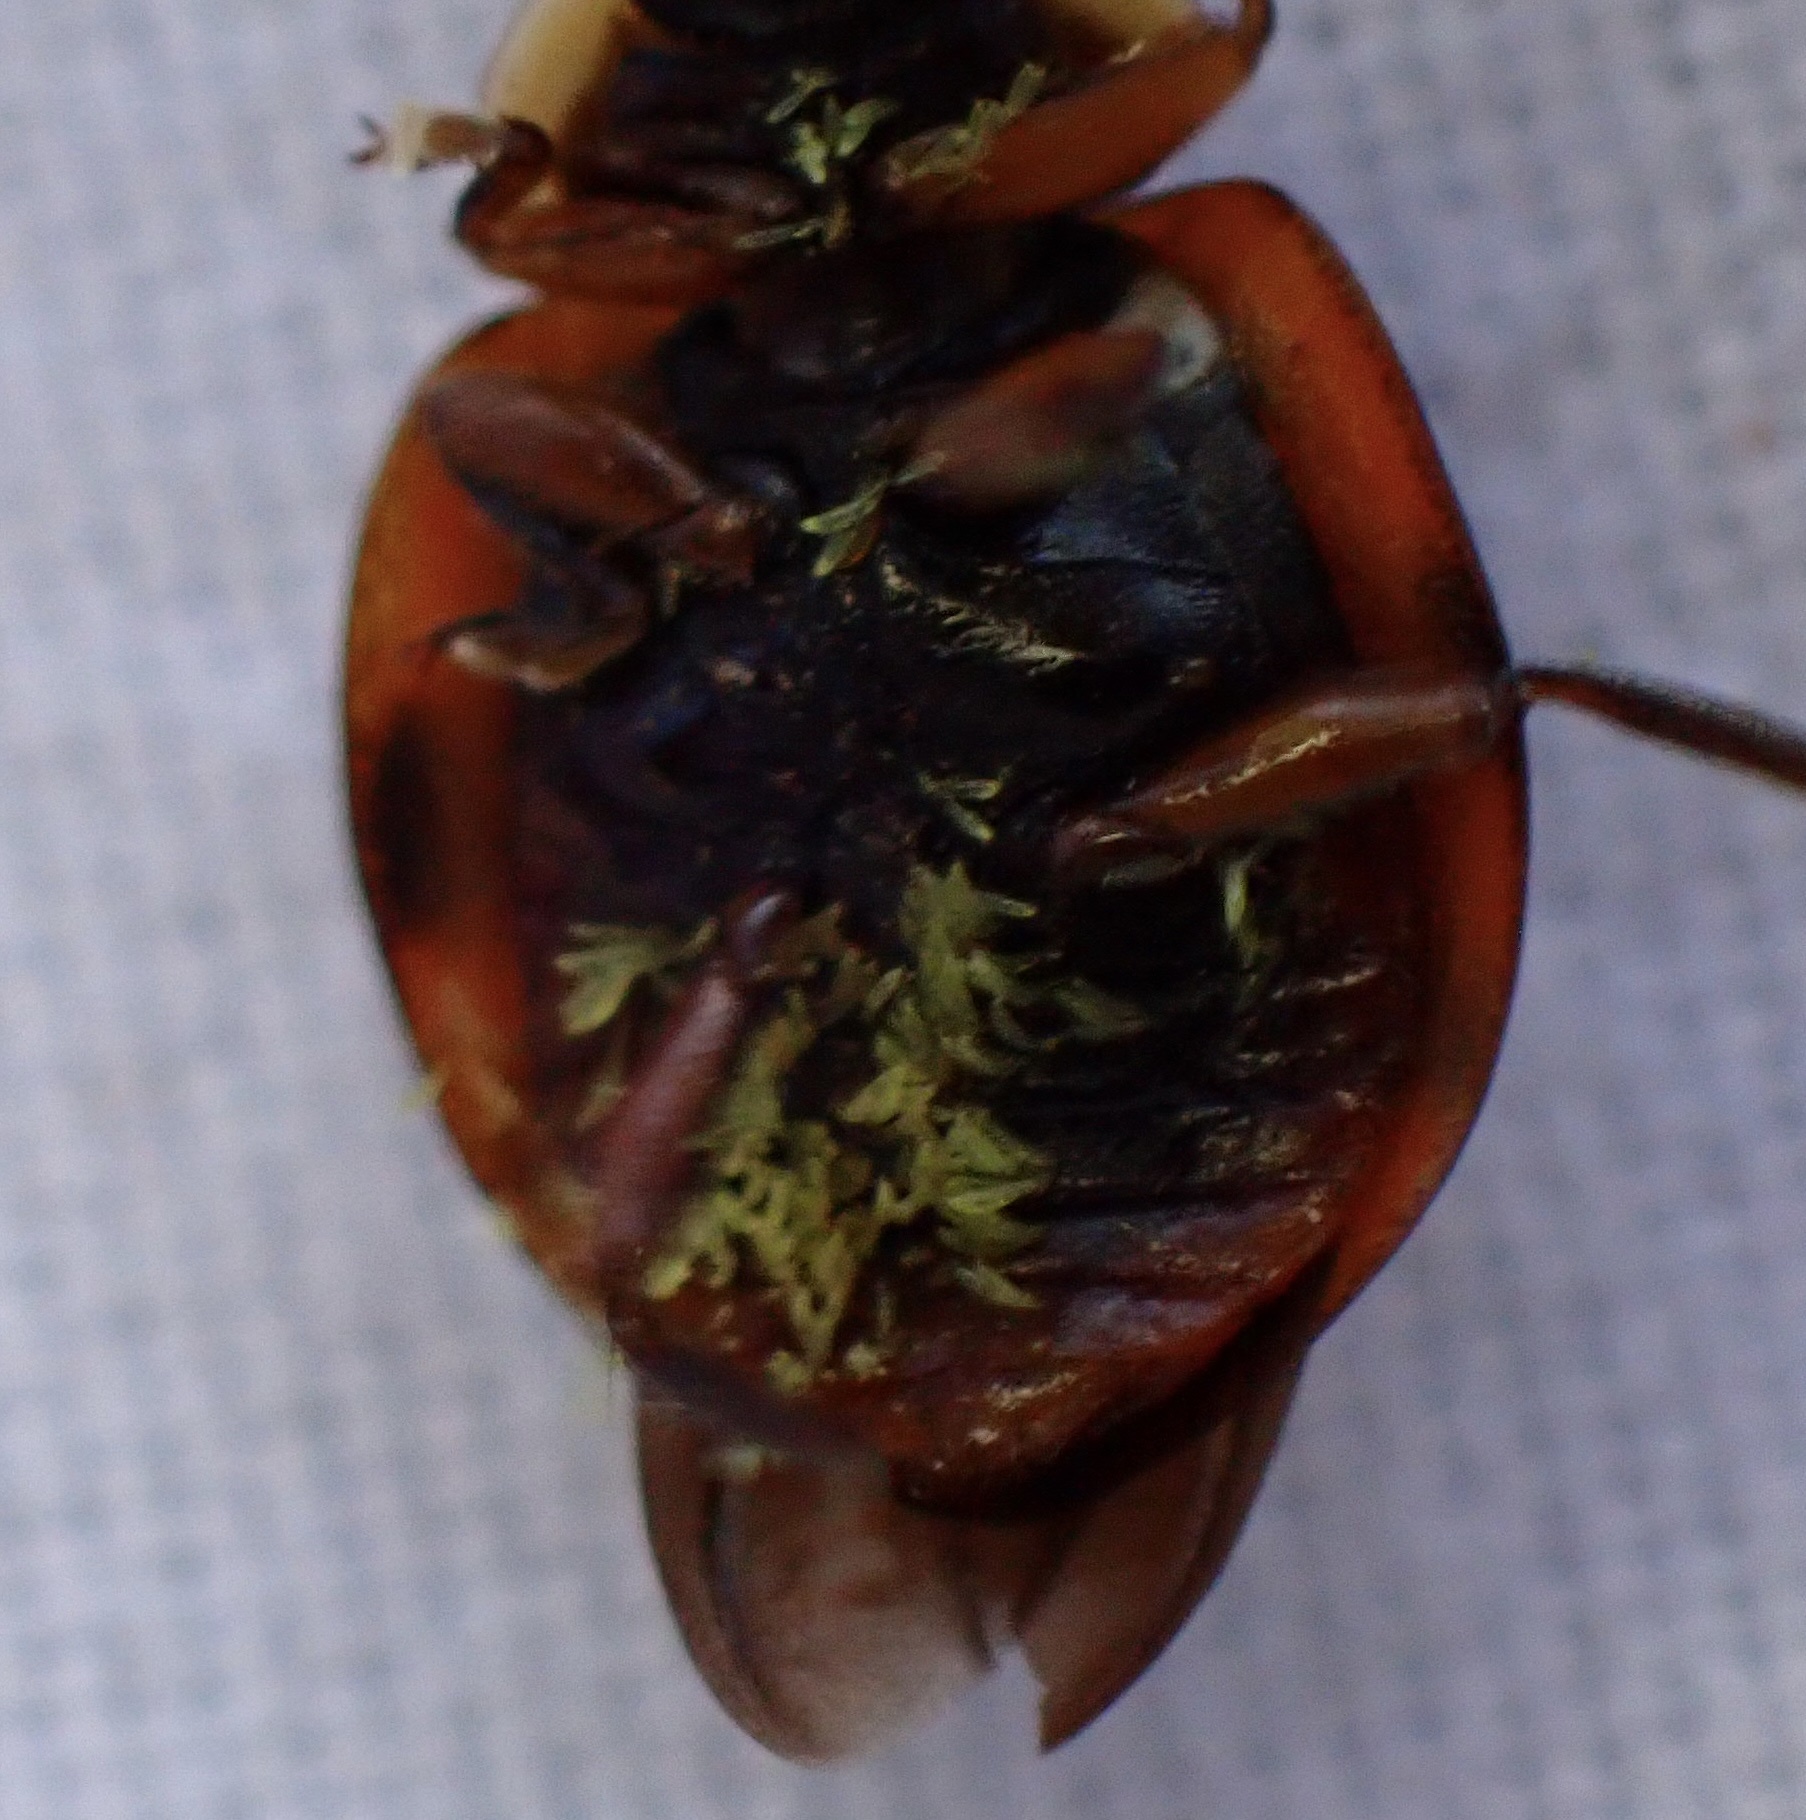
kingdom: Fungi
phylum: Ascomycota
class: Laboulbeniomycetes
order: Laboulbeniales
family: Laboulbeniaceae
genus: Hesperomyces
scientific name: Hesperomyces harmoniae
